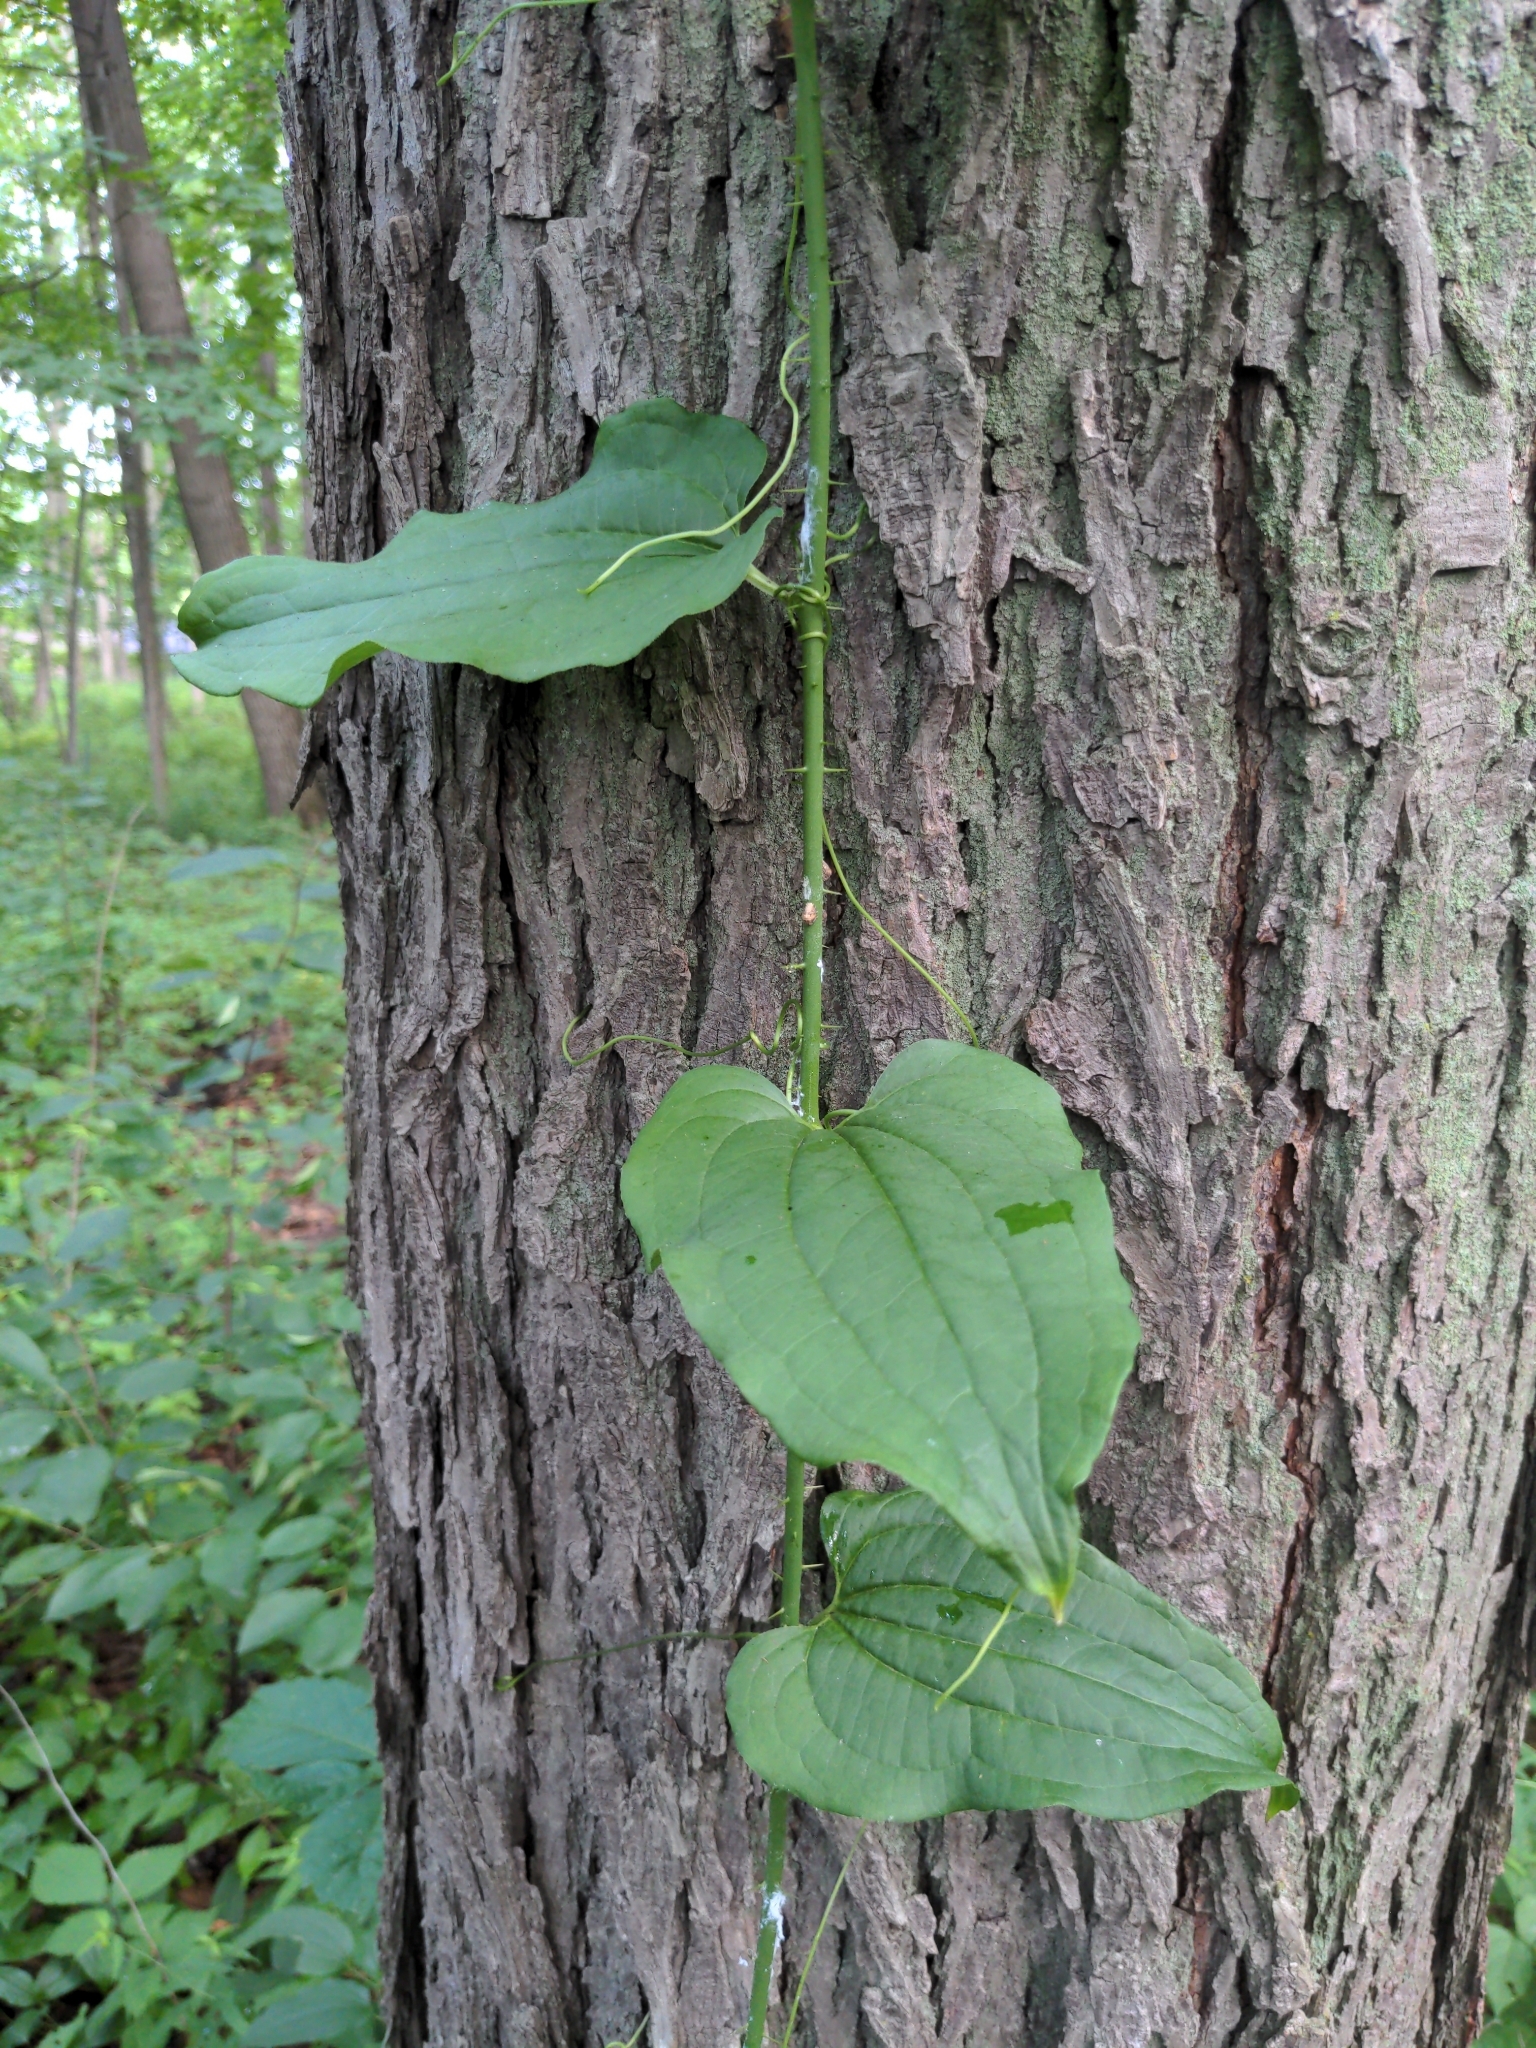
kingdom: Plantae
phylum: Tracheophyta
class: Liliopsida
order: Liliales
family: Smilacaceae
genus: Smilax
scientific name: Smilax tamnoides
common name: Hellfetter
